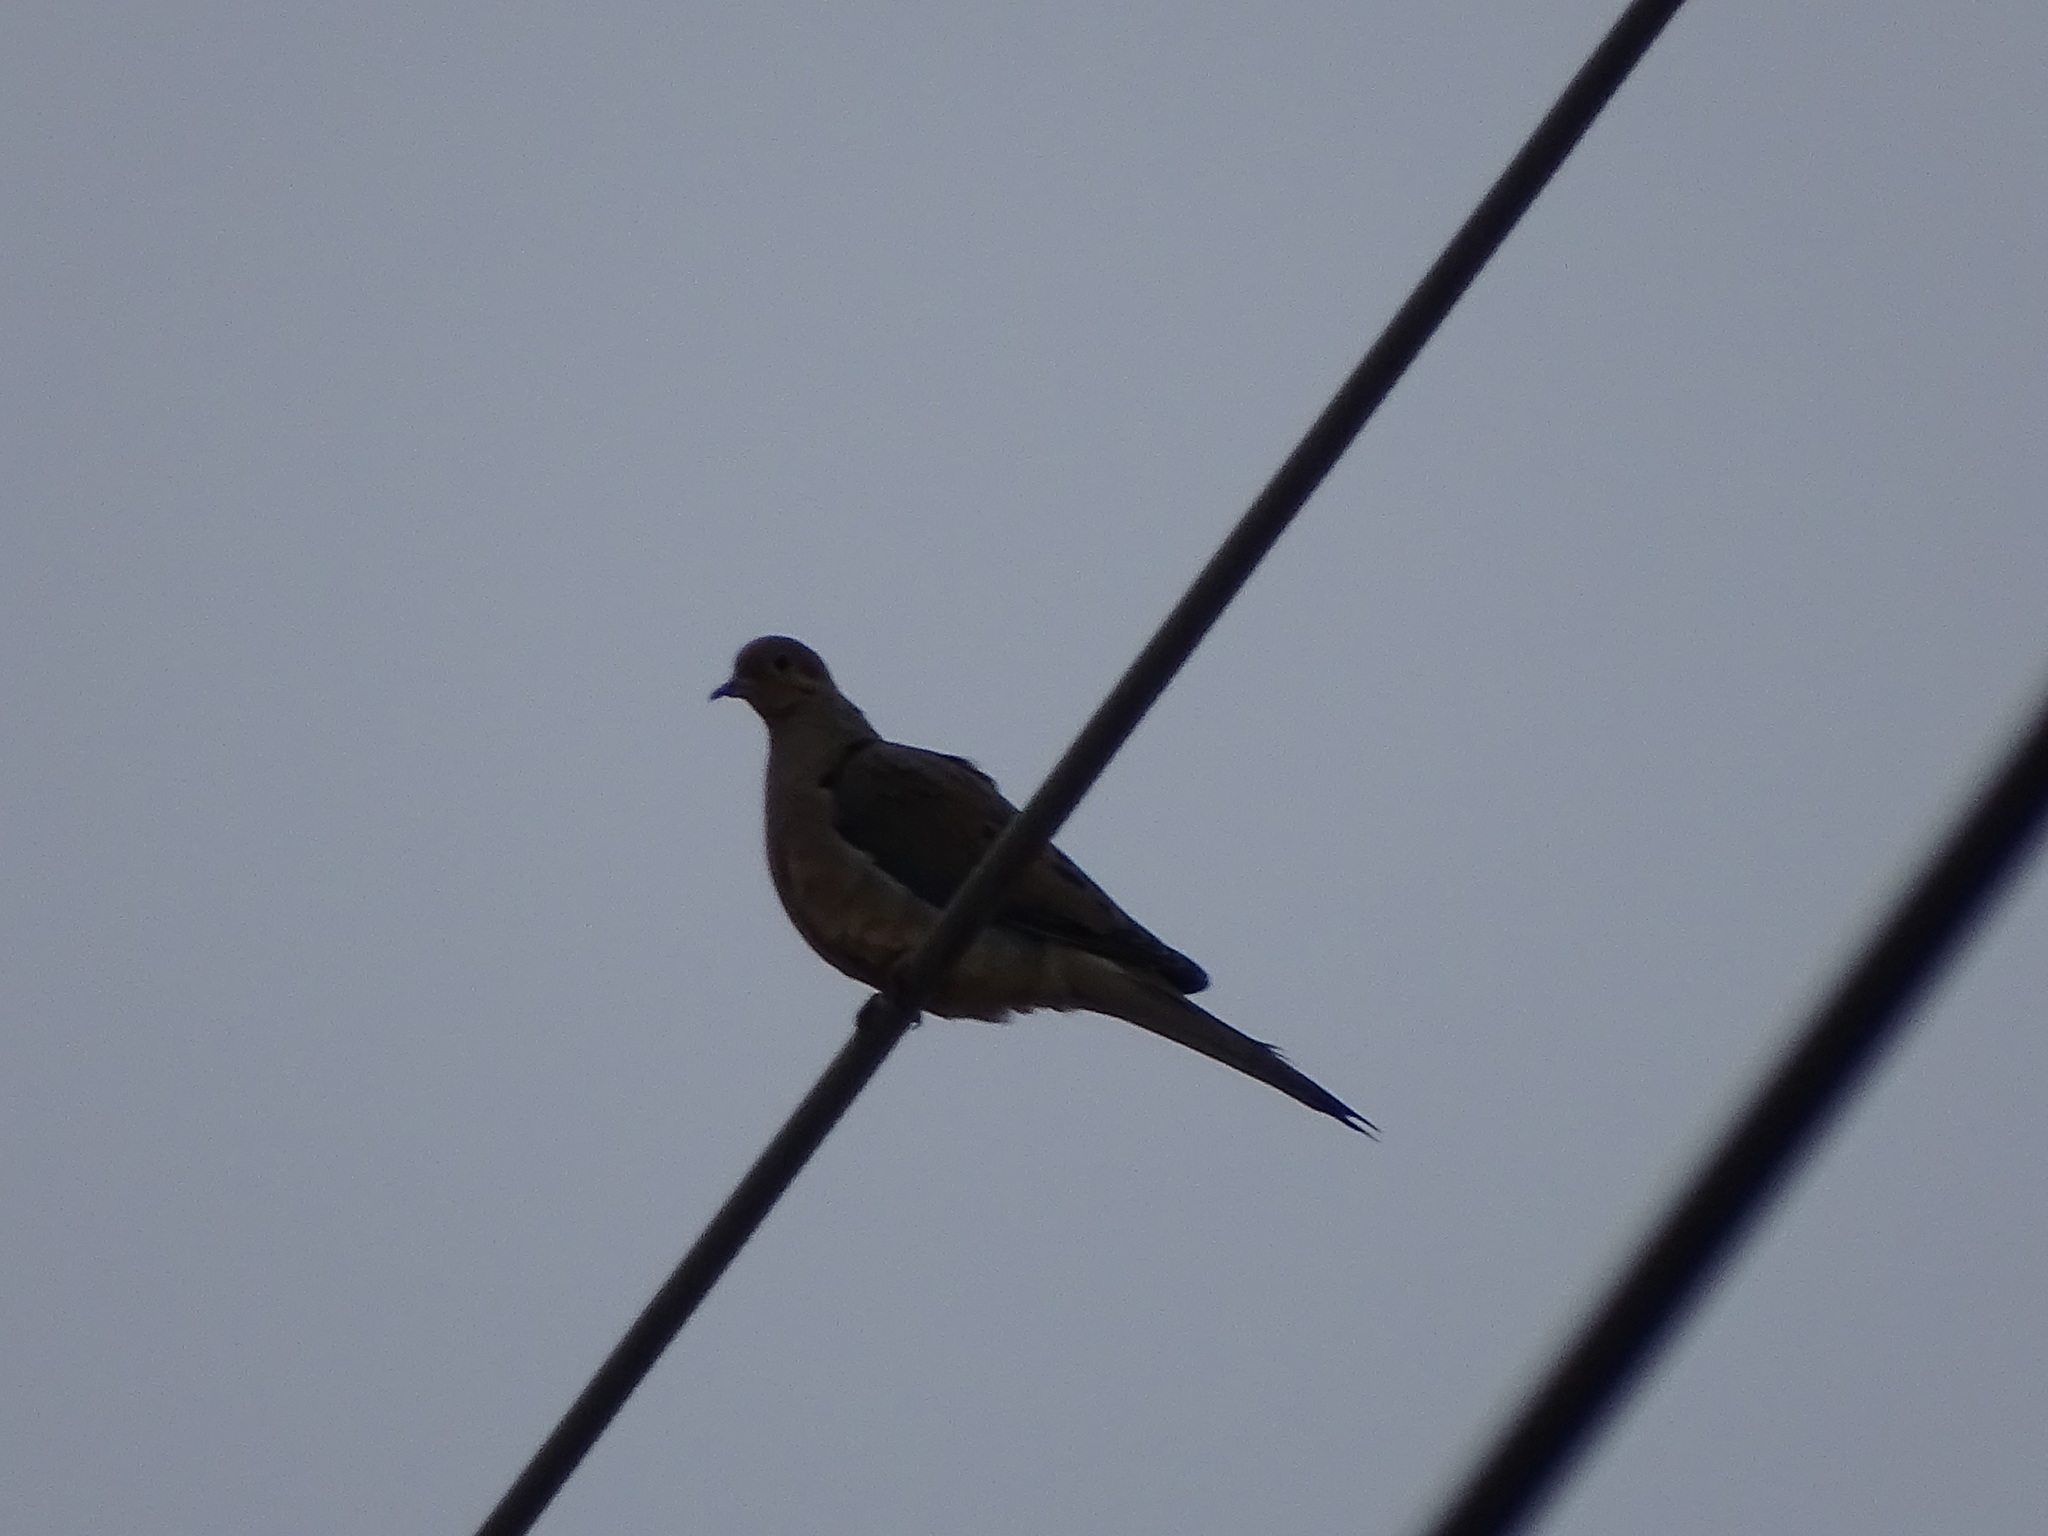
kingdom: Animalia
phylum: Chordata
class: Aves
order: Columbiformes
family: Columbidae
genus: Zenaida
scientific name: Zenaida macroura
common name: Mourning dove
